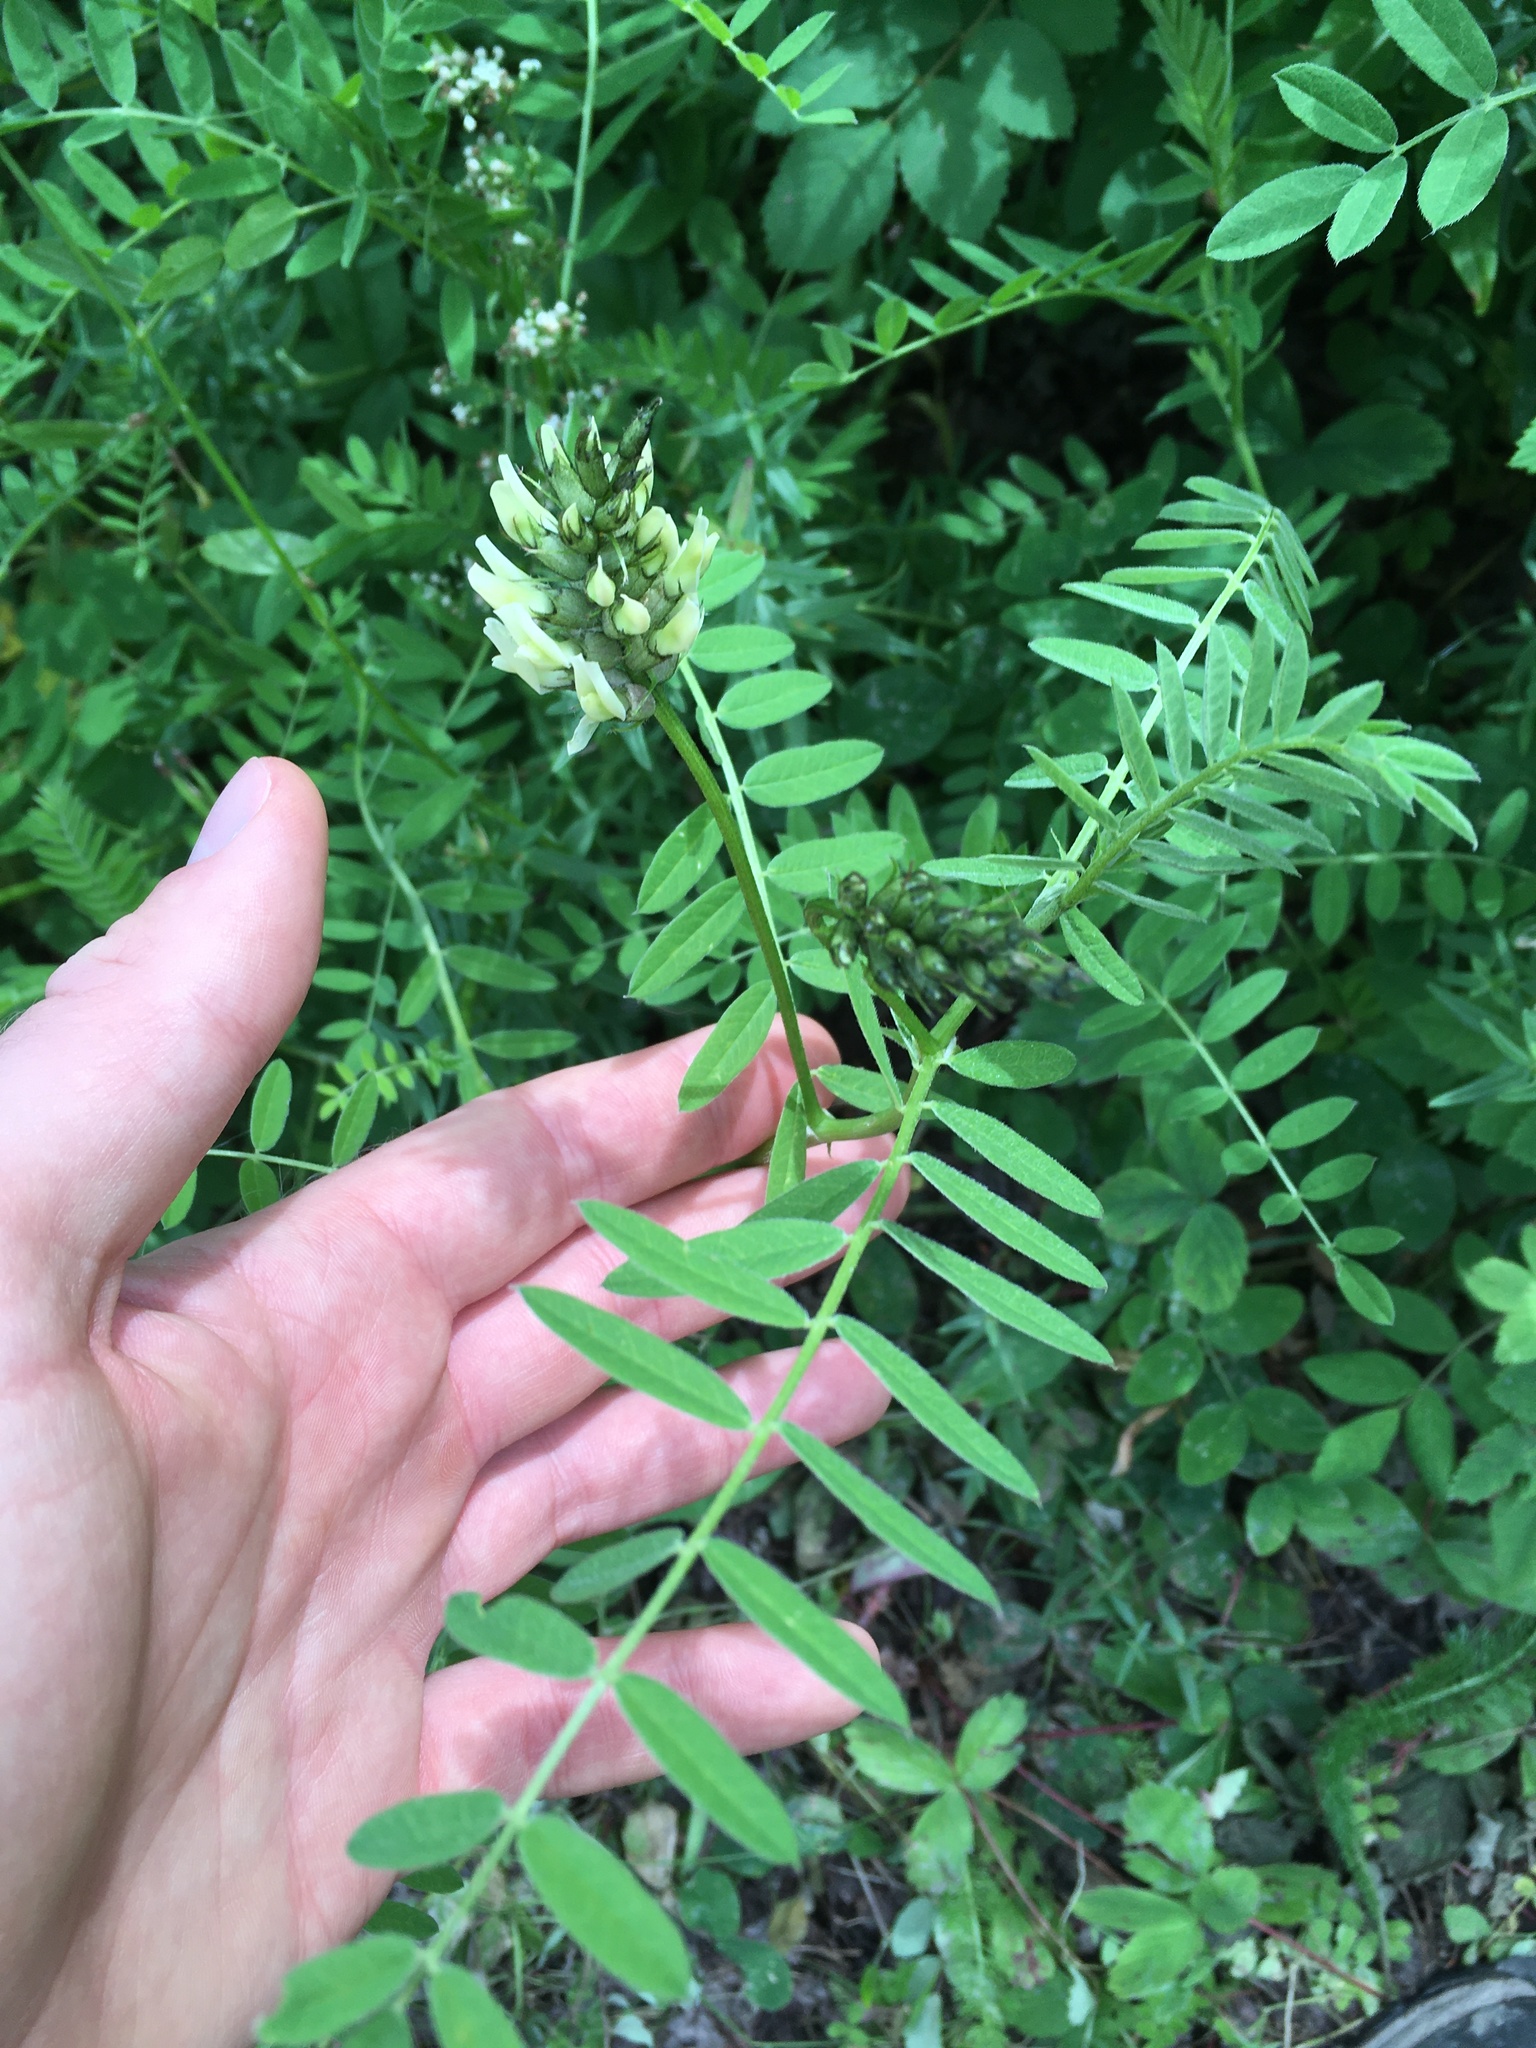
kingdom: Plantae
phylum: Tracheophyta
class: Magnoliopsida
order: Fabales
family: Fabaceae
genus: Astragalus
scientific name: Astragalus cicer
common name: Chick-pea milk-vetch
